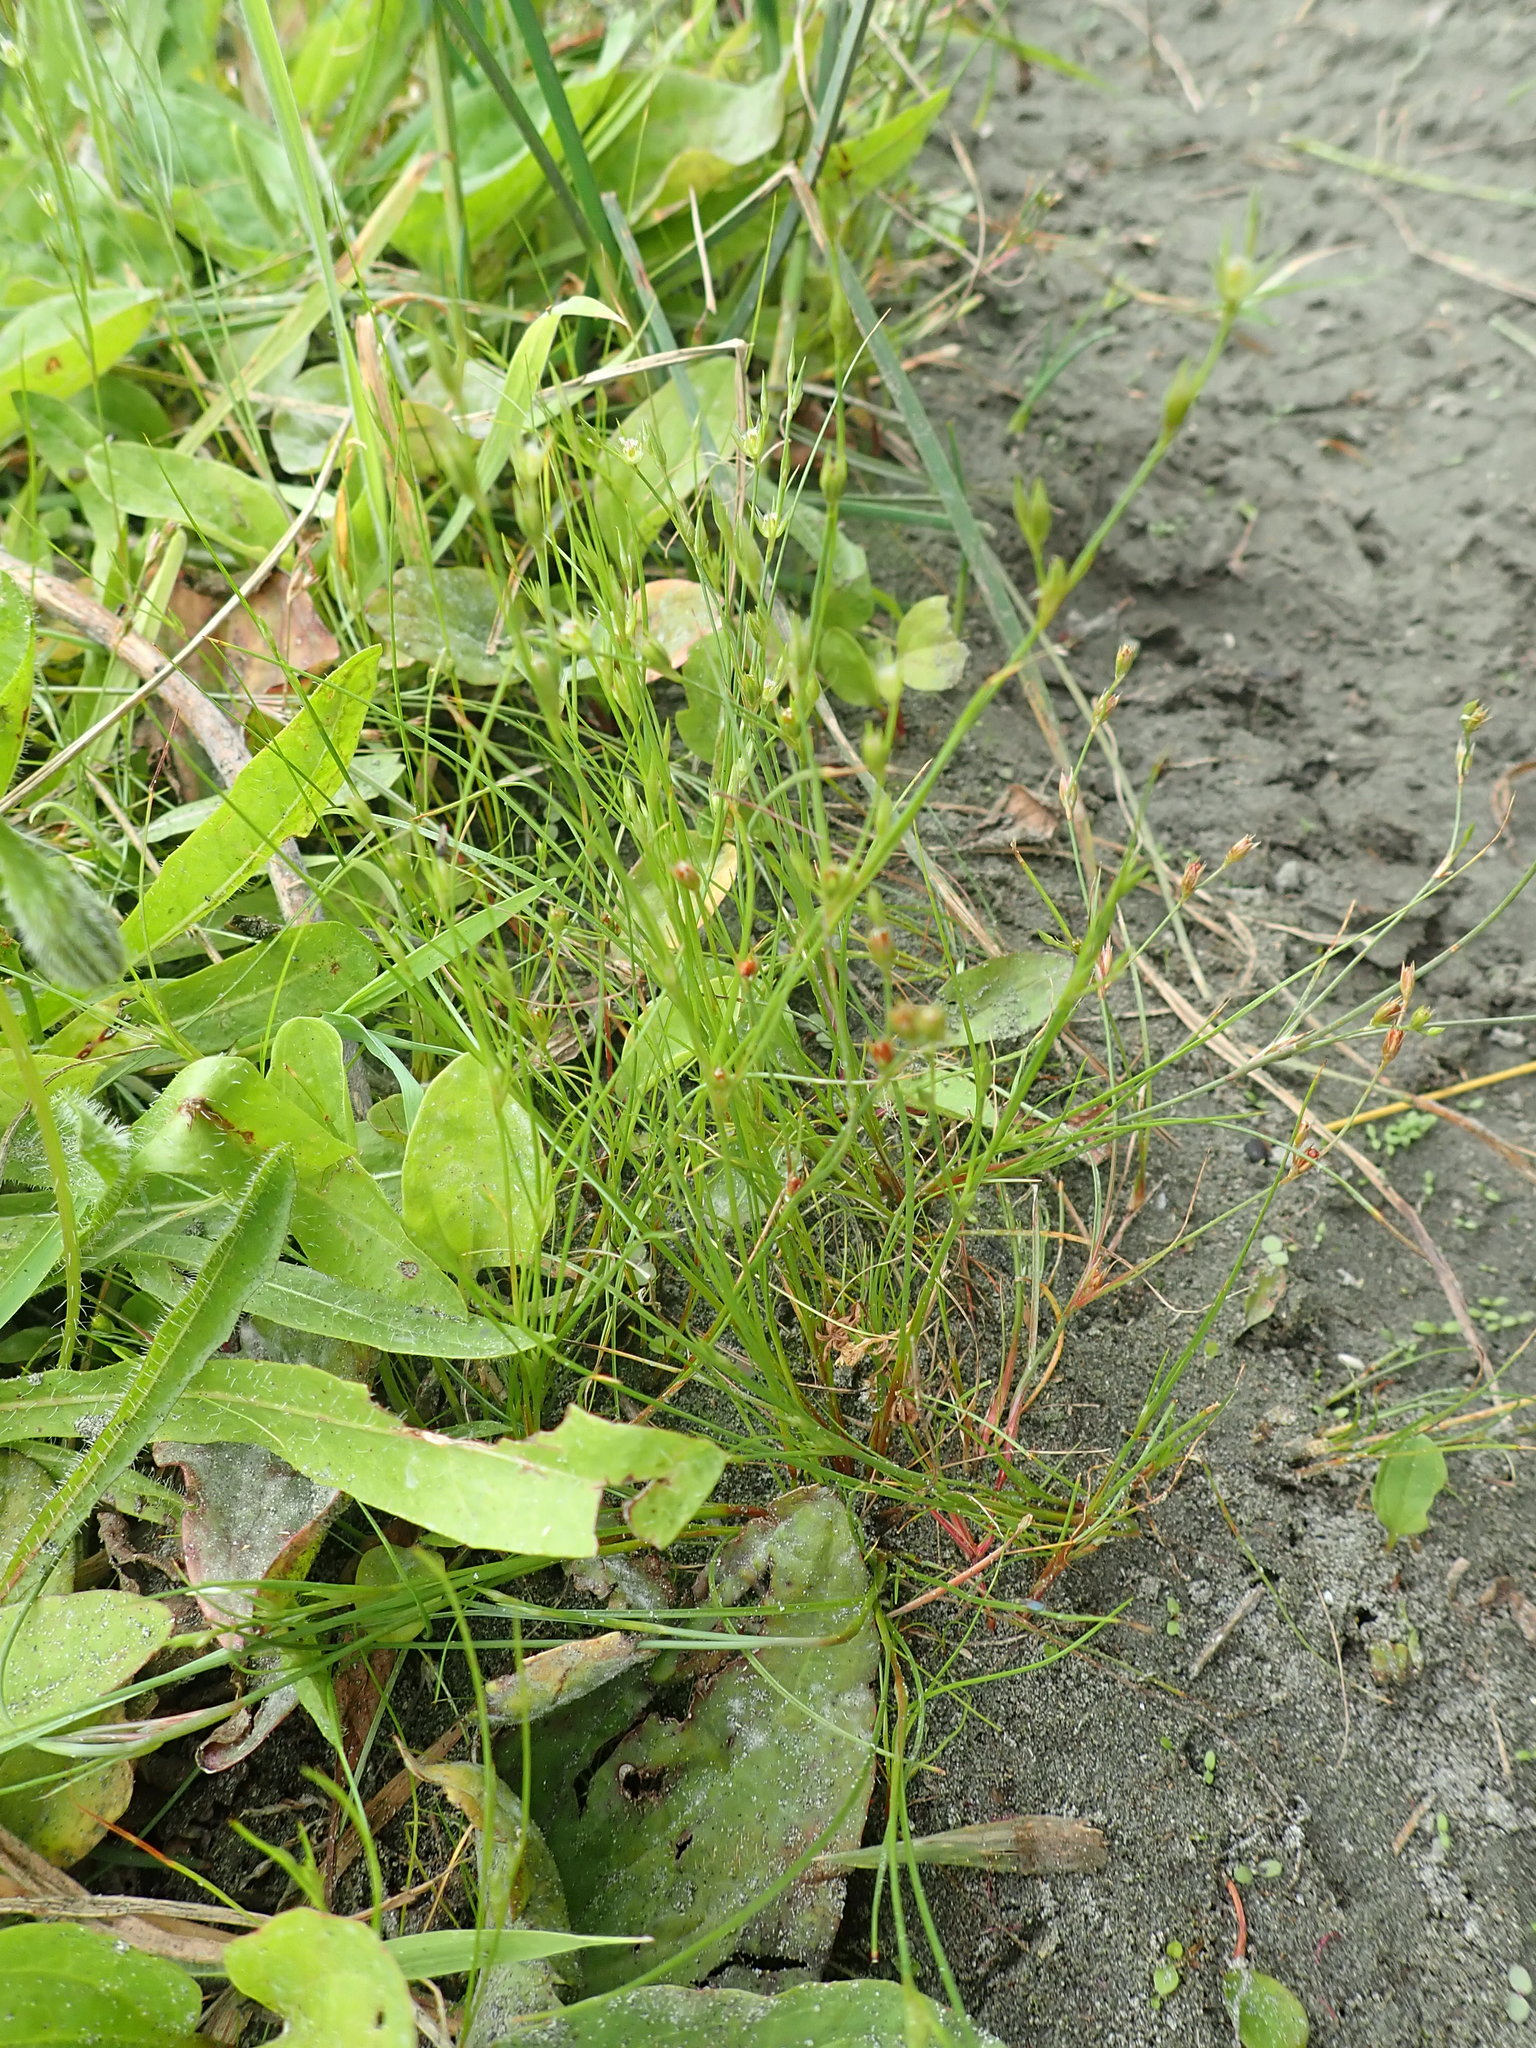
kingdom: Plantae
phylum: Tracheophyta
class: Liliopsida
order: Poales
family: Juncaceae
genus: Juncus
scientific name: Juncus tenuis
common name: Slender rush
